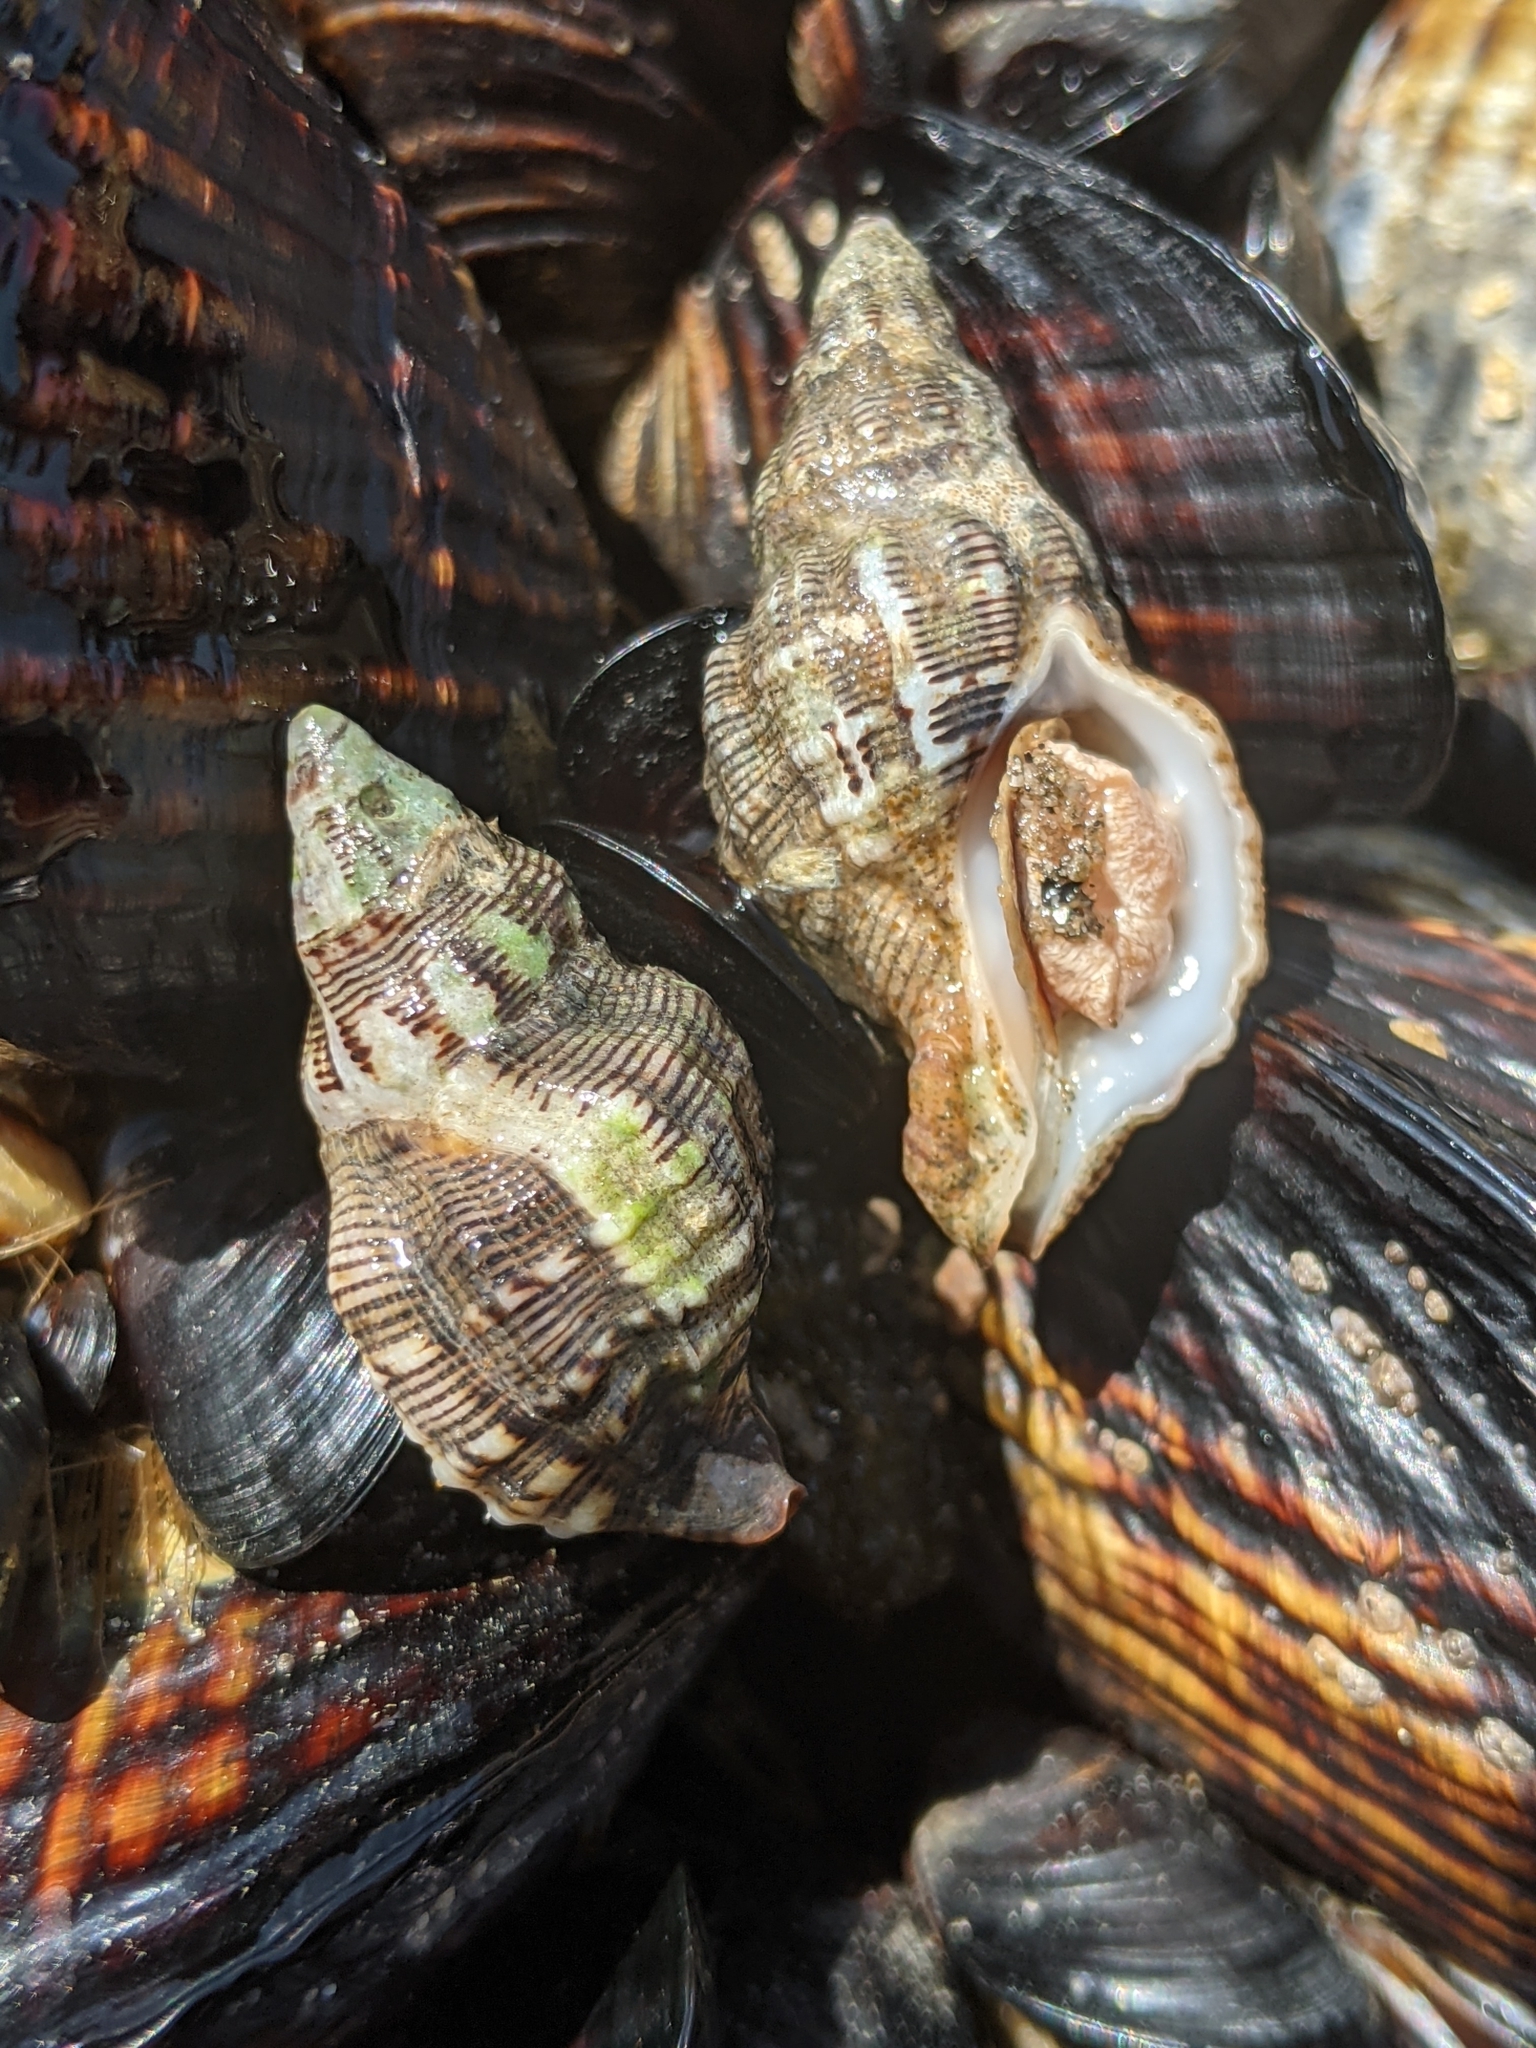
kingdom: Animalia
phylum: Mollusca
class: Gastropoda
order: Neogastropoda
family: Muricidae
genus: Roperia
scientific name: Roperia poulsoni
